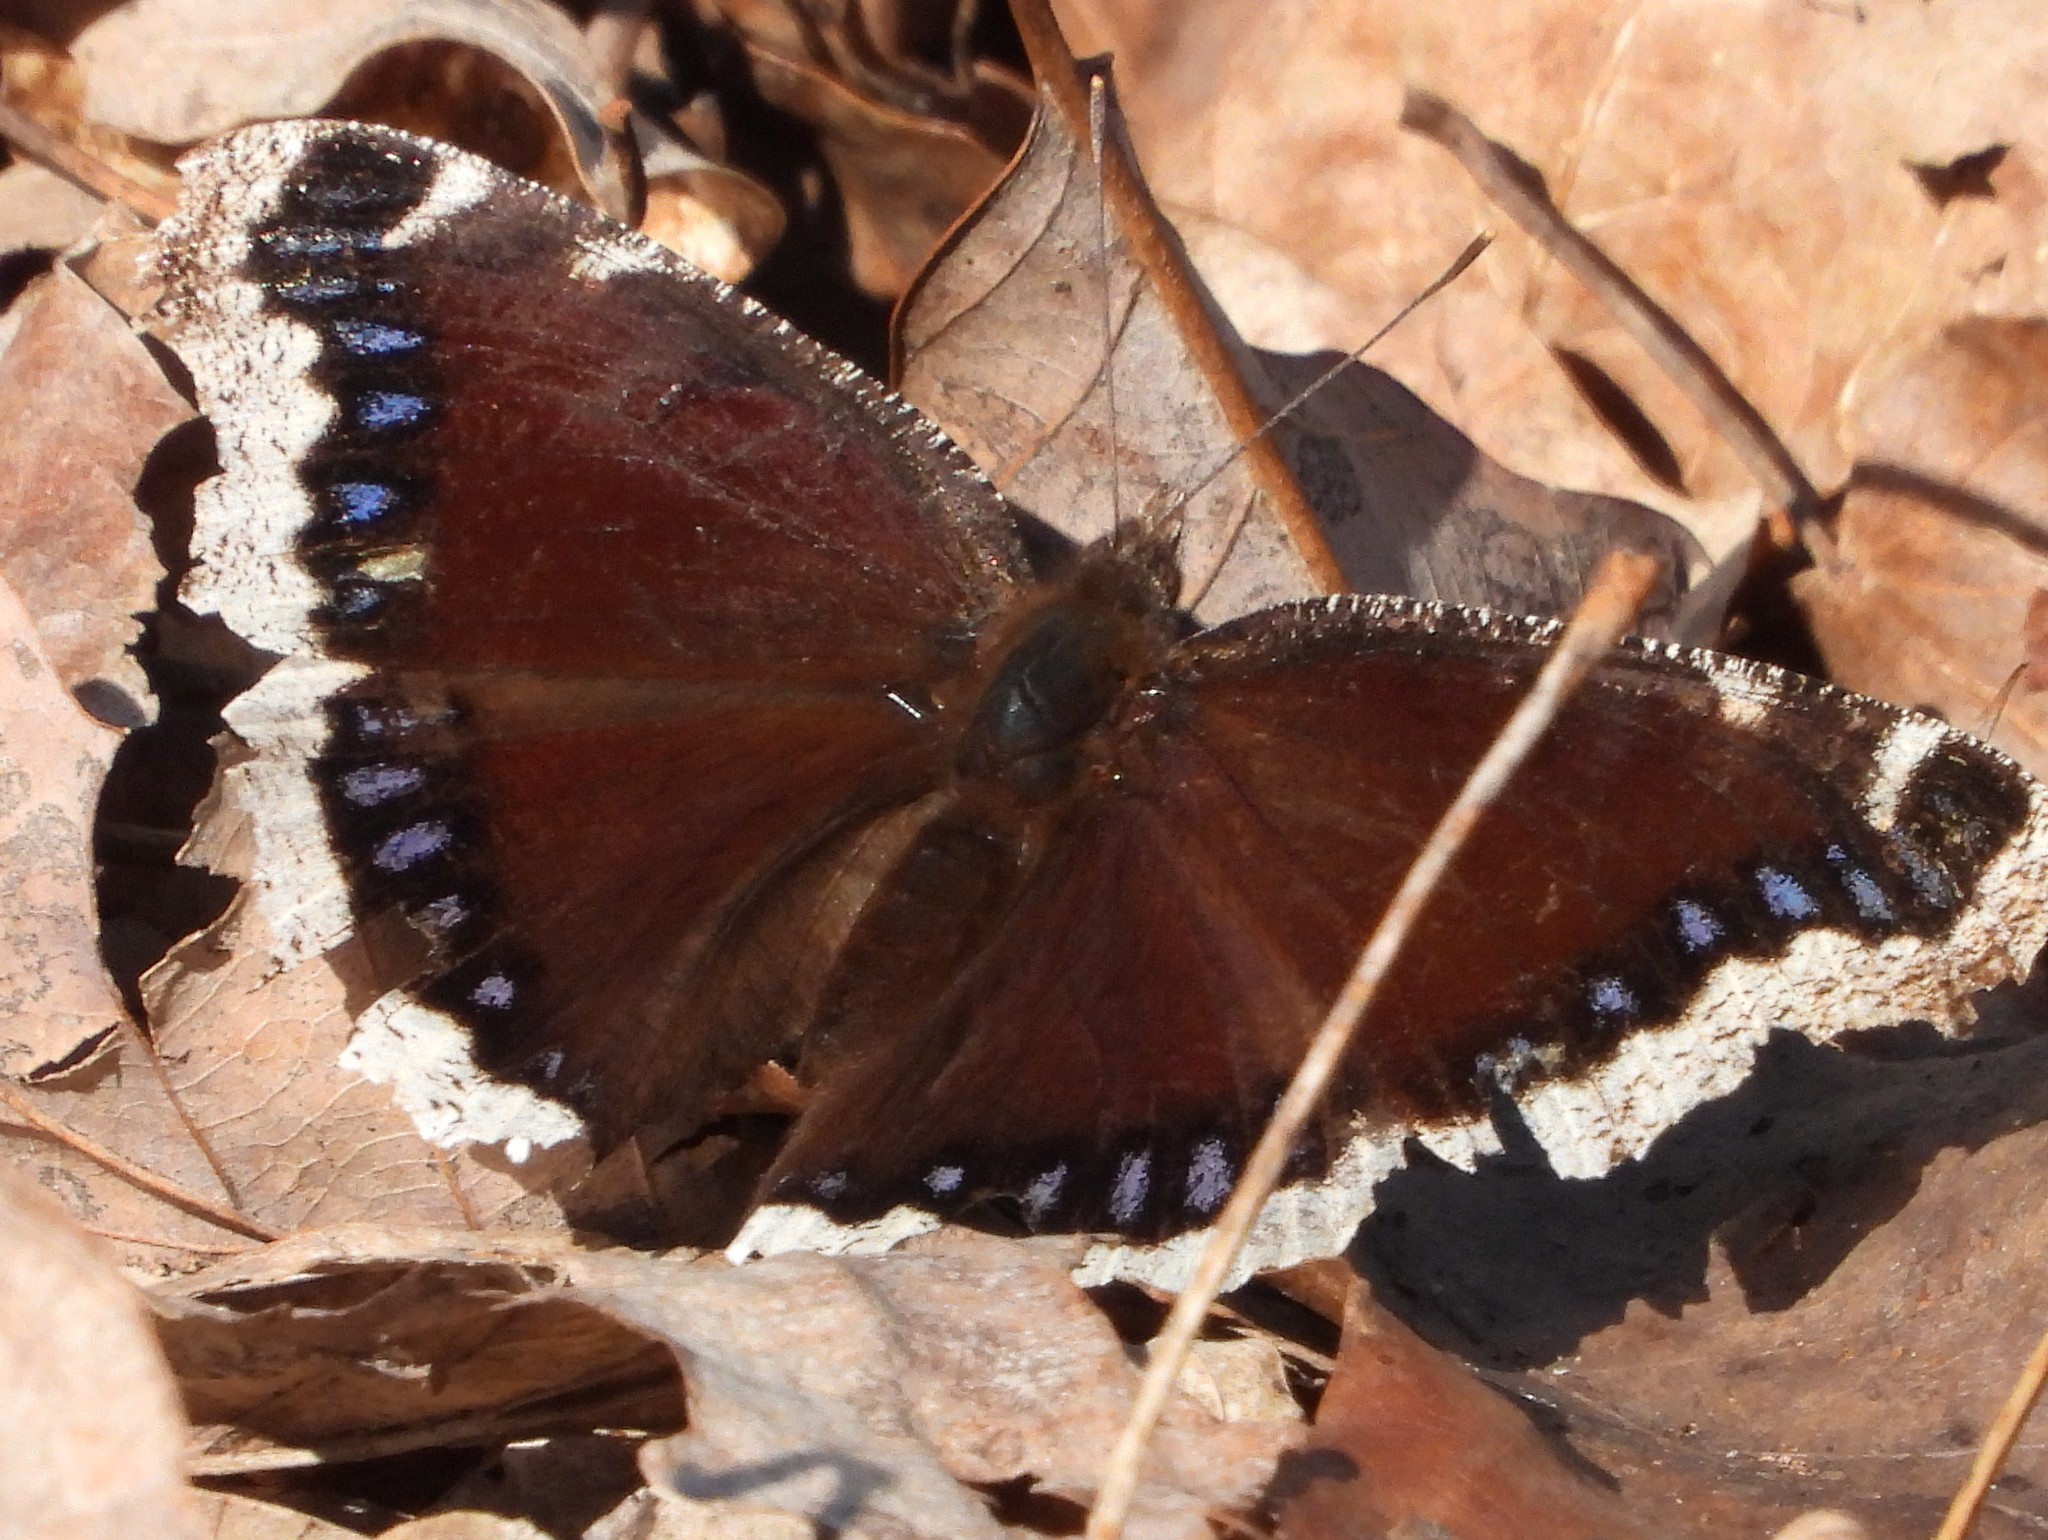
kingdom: Animalia
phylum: Arthropoda
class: Insecta
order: Lepidoptera
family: Nymphalidae
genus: Nymphalis
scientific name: Nymphalis antiopa
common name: Camberwell beauty
